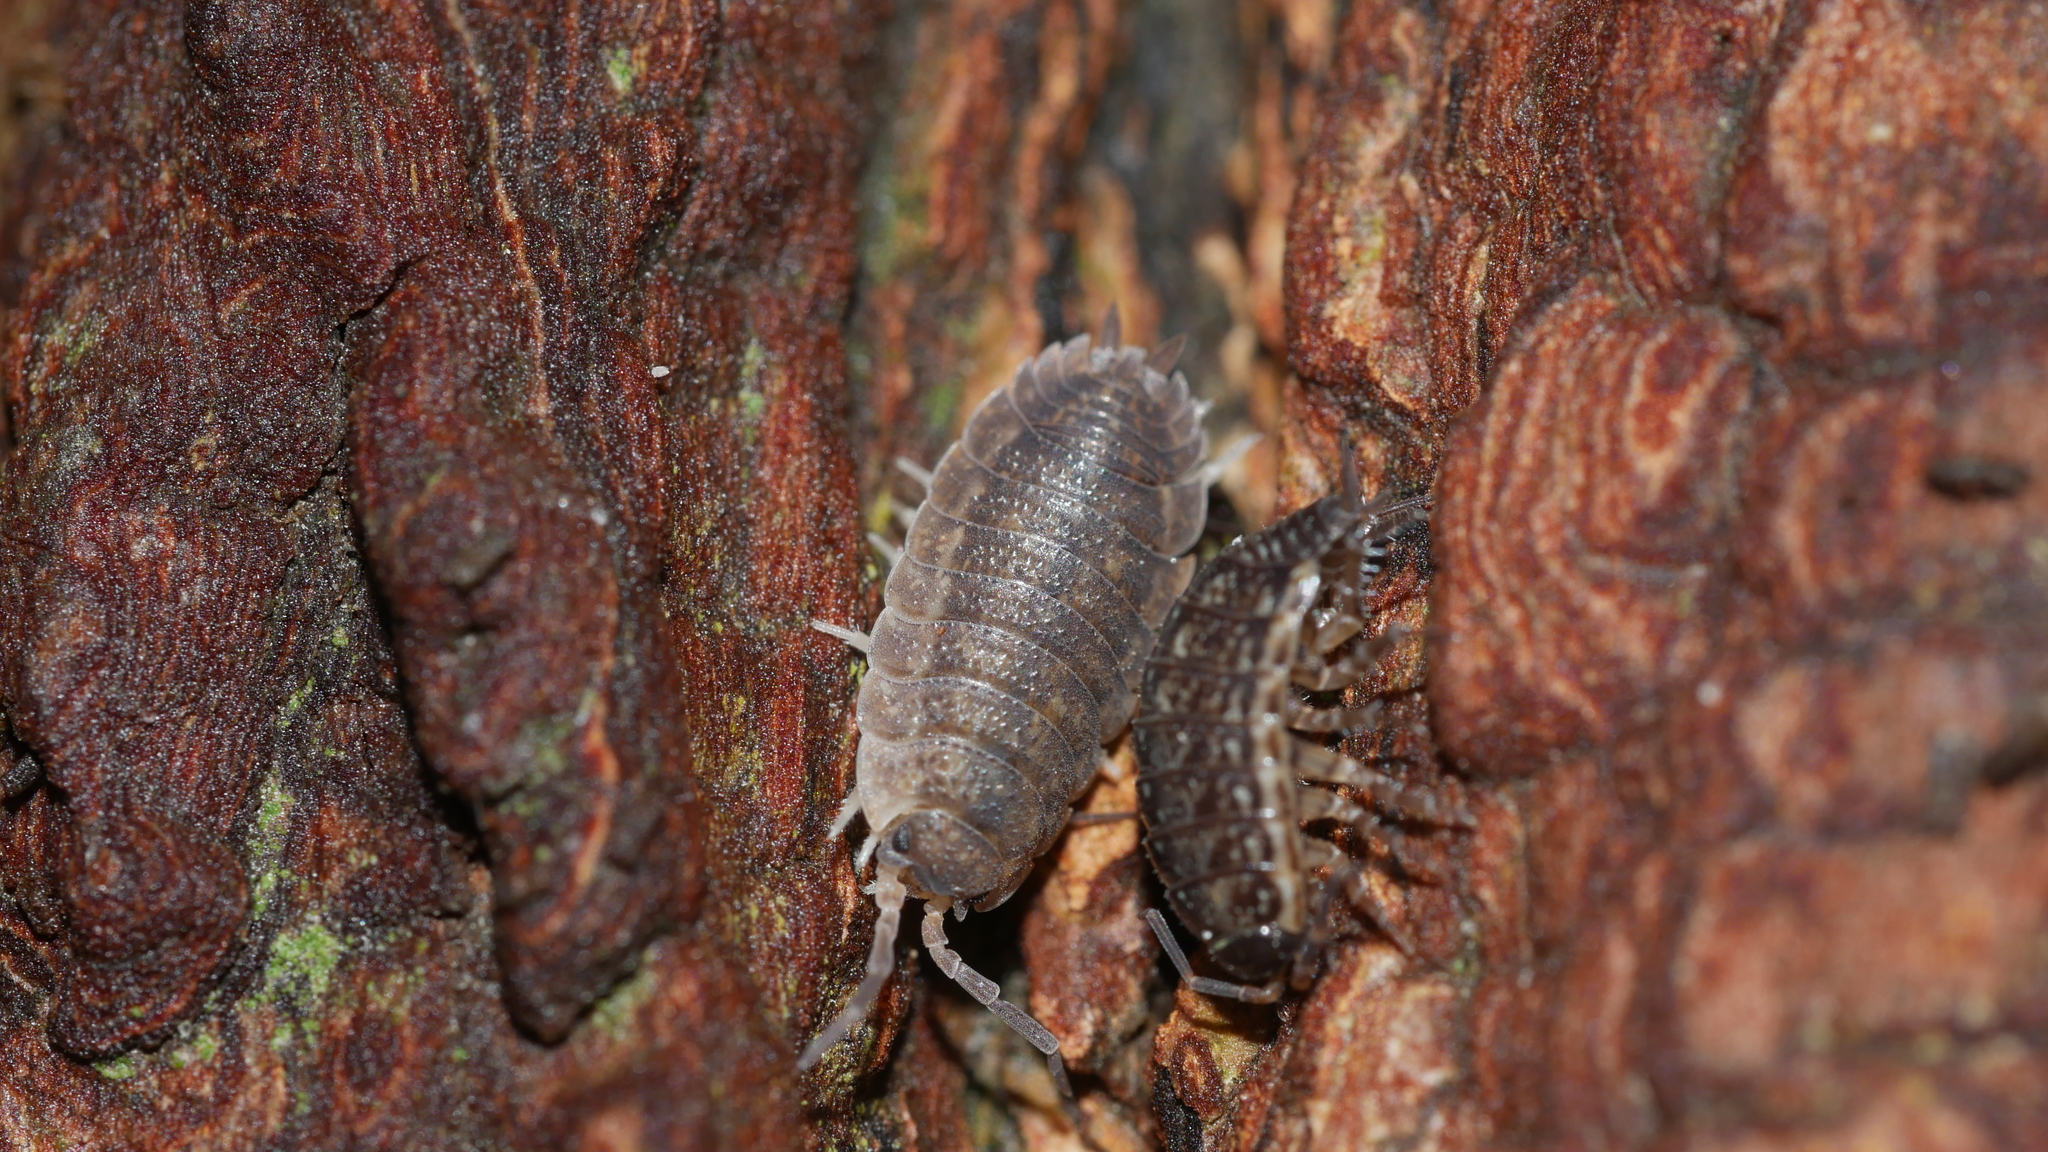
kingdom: Animalia
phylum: Arthropoda
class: Malacostraca
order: Isopoda
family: Porcellionidae
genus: Porcellio
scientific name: Porcellio scaber
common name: Common rough woodlouse
